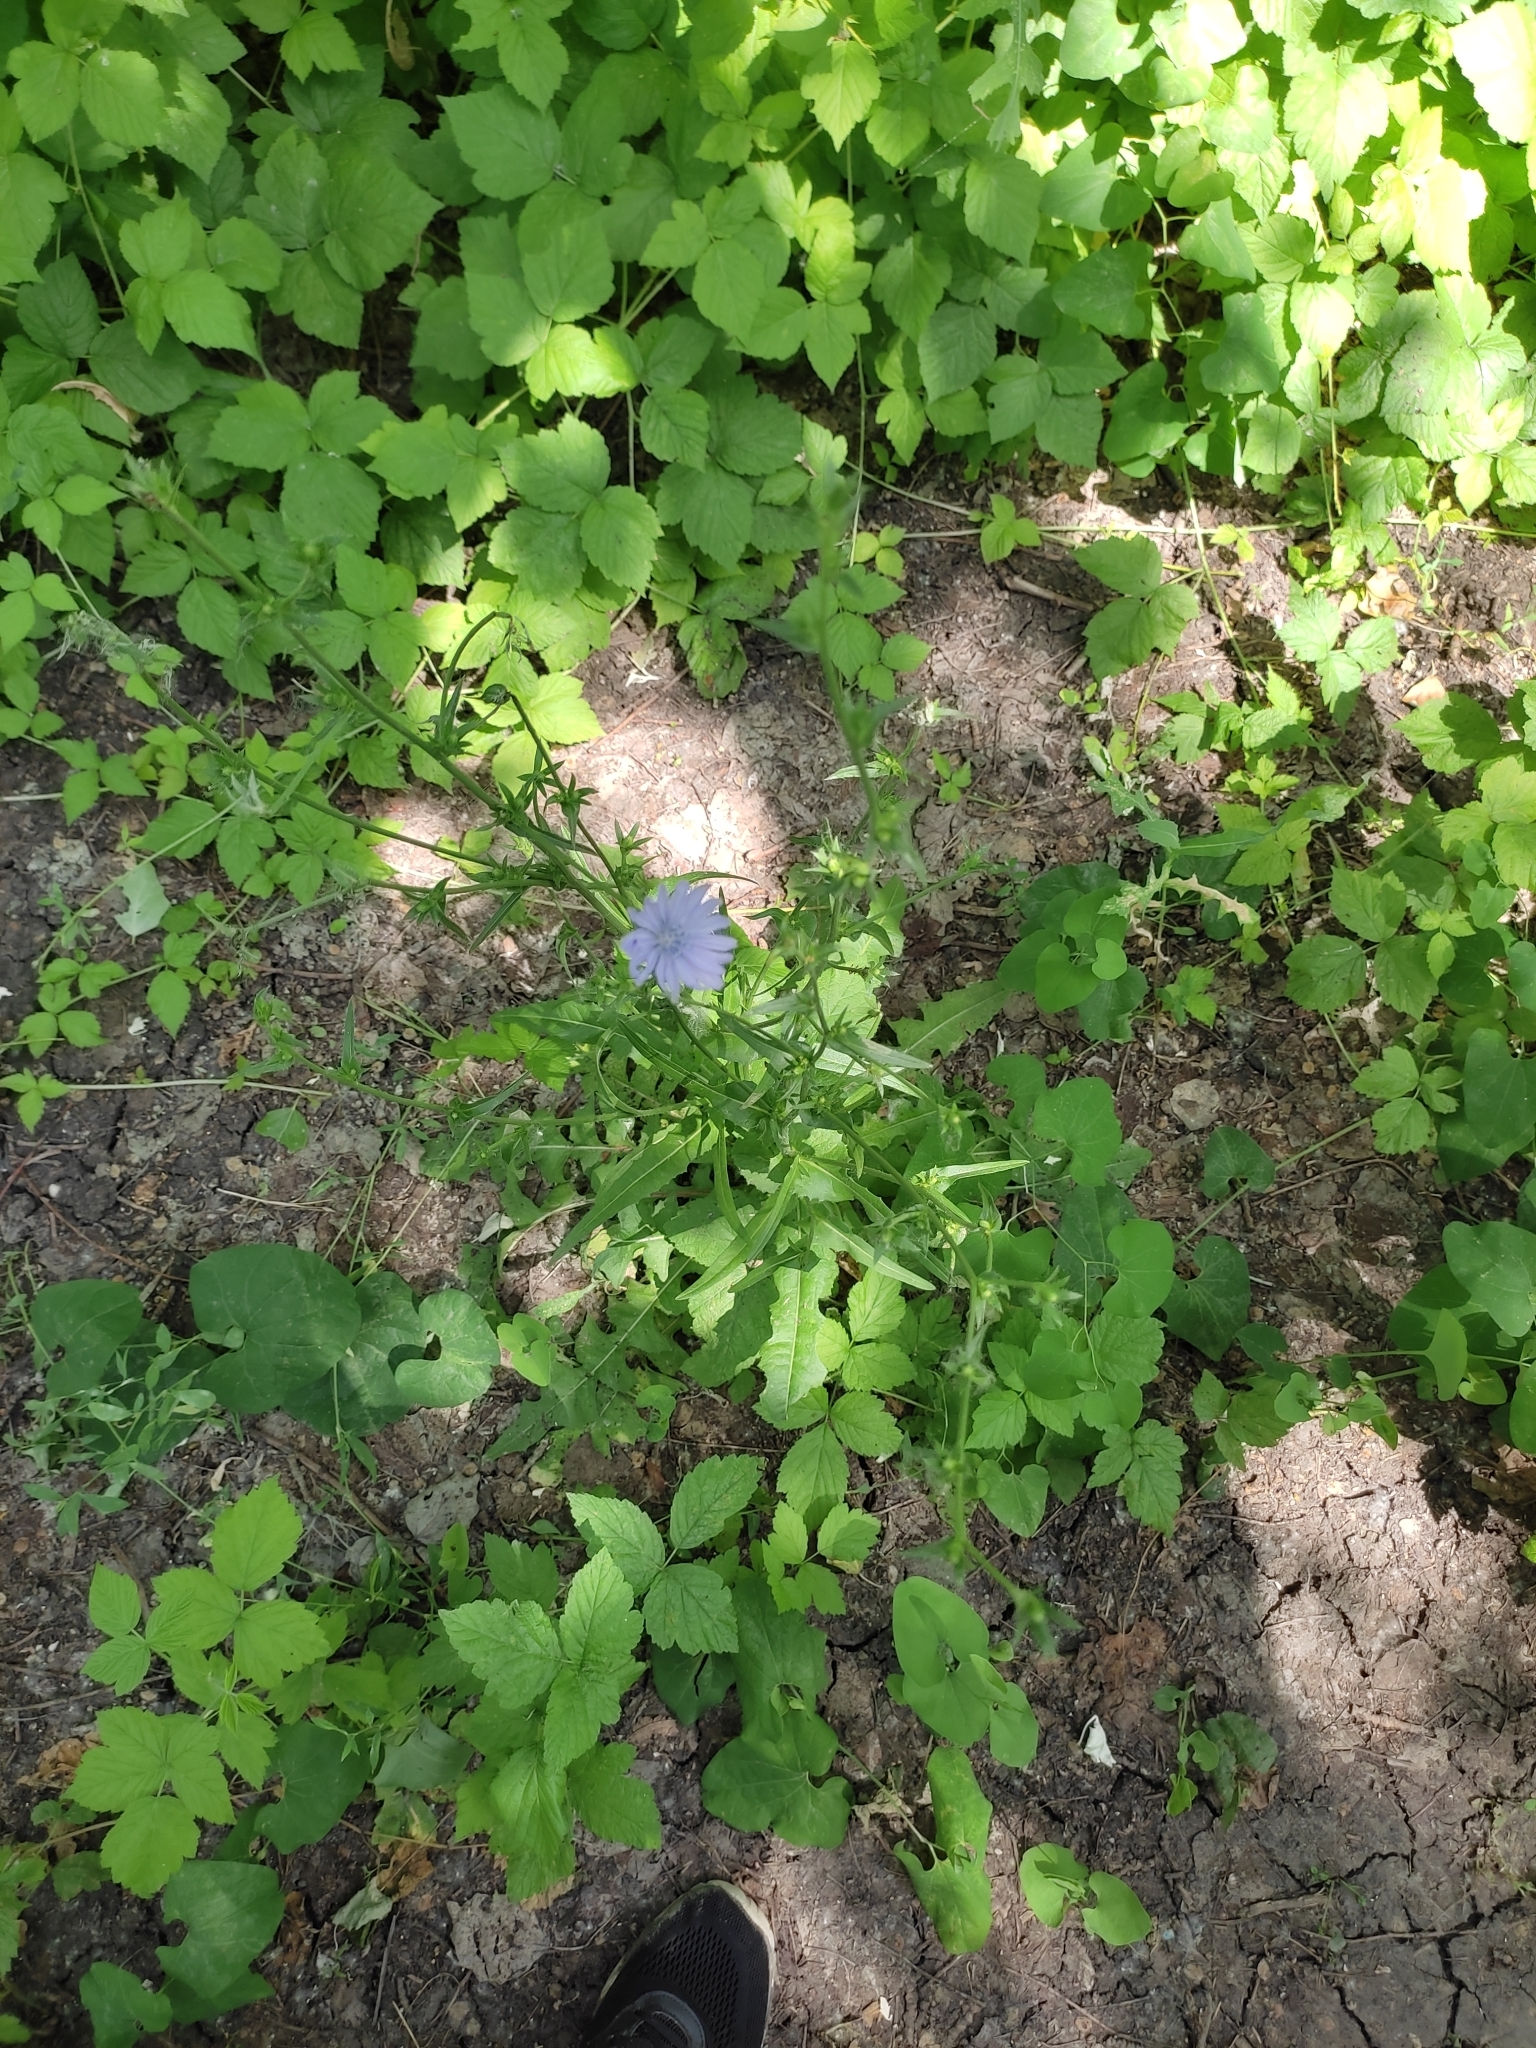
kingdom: Plantae
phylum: Tracheophyta
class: Magnoliopsida
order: Asterales
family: Asteraceae
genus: Cichorium
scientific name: Cichorium intybus
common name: Chicory
